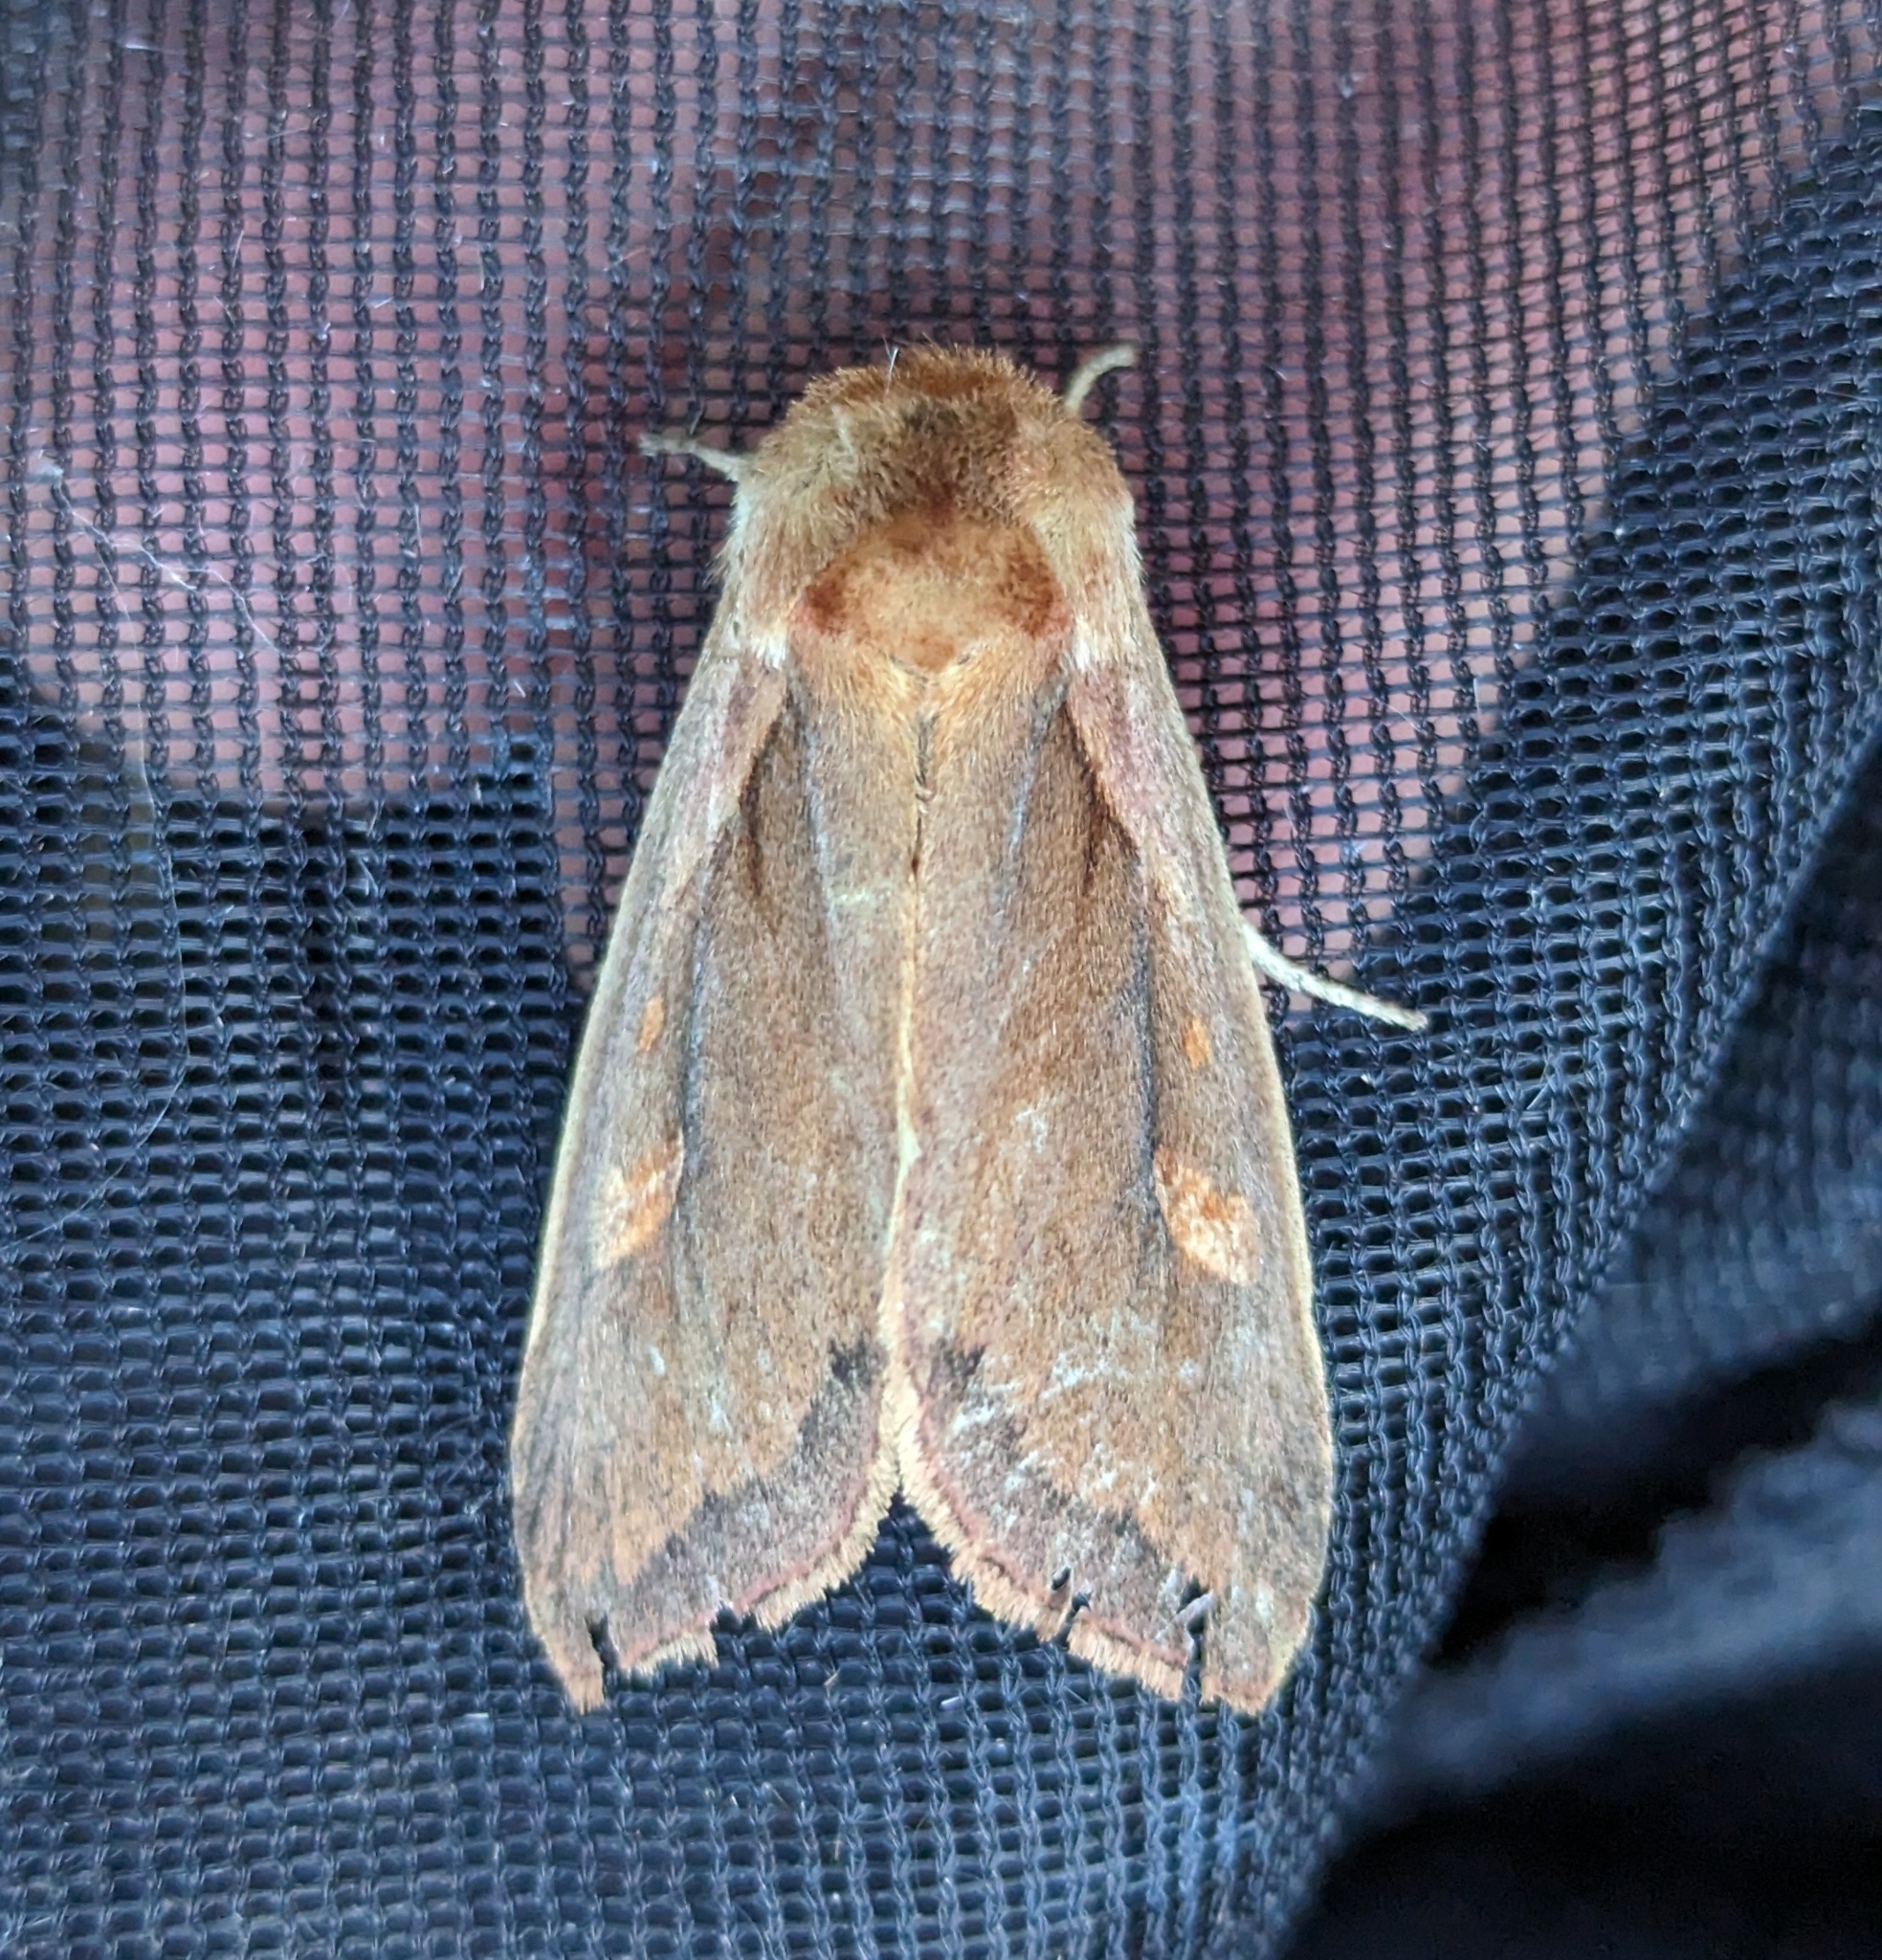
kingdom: Animalia
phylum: Arthropoda
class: Insecta
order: Lepidoptera
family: Noctuidae
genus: Bellura
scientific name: Bellura obliqua
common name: Cattail borer moth
